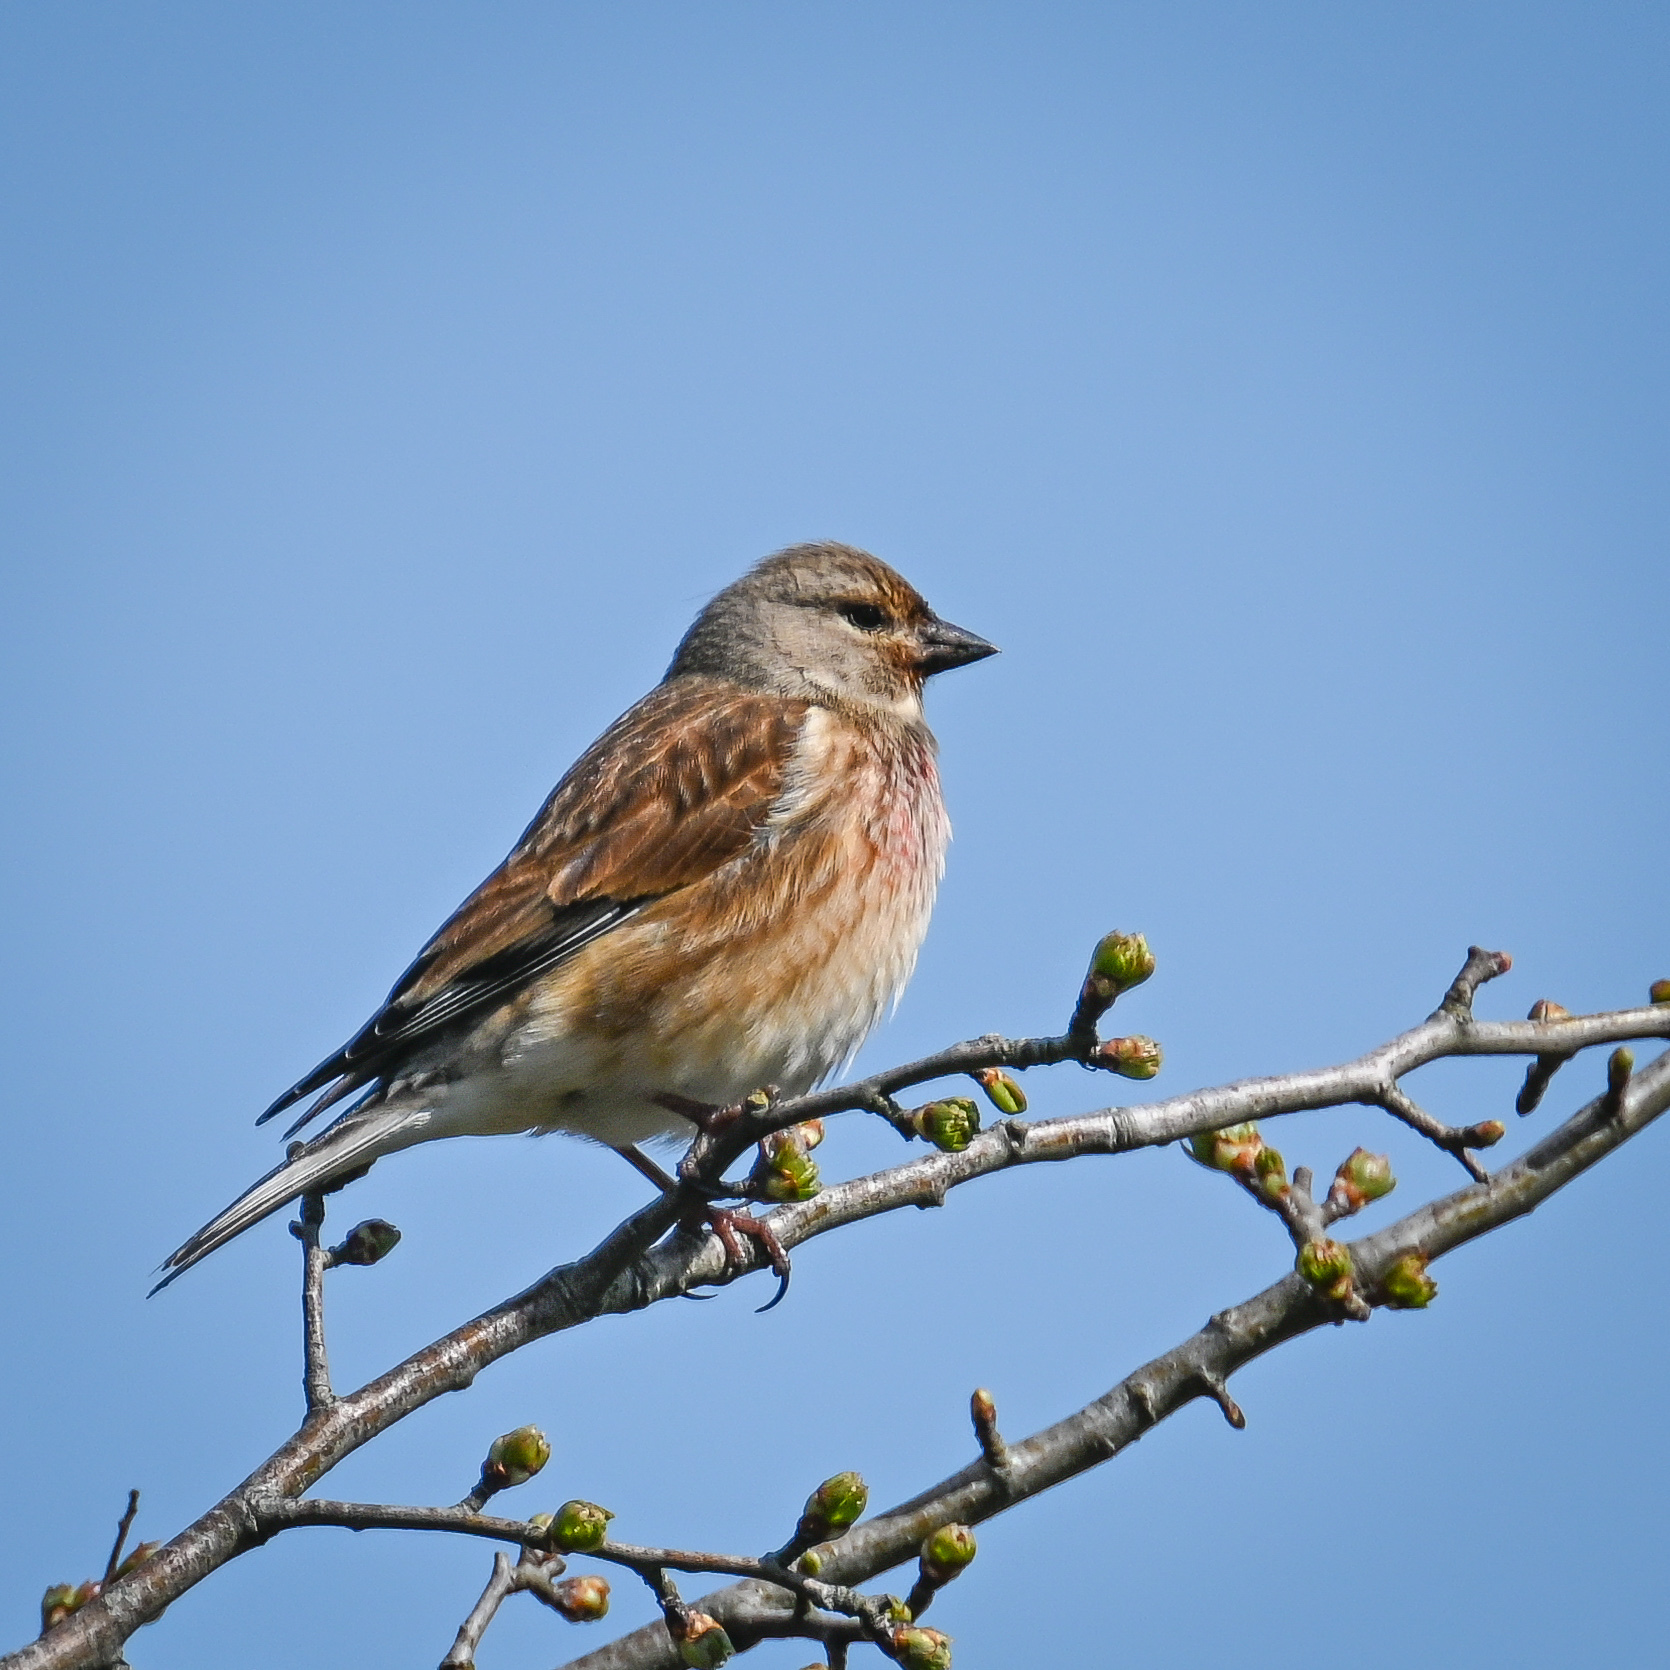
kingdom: Animalia
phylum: Chordata
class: Aves
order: Passeriformes
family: Fringillidae
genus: Linaria
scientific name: Linaria cannabina
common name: Common linnet
